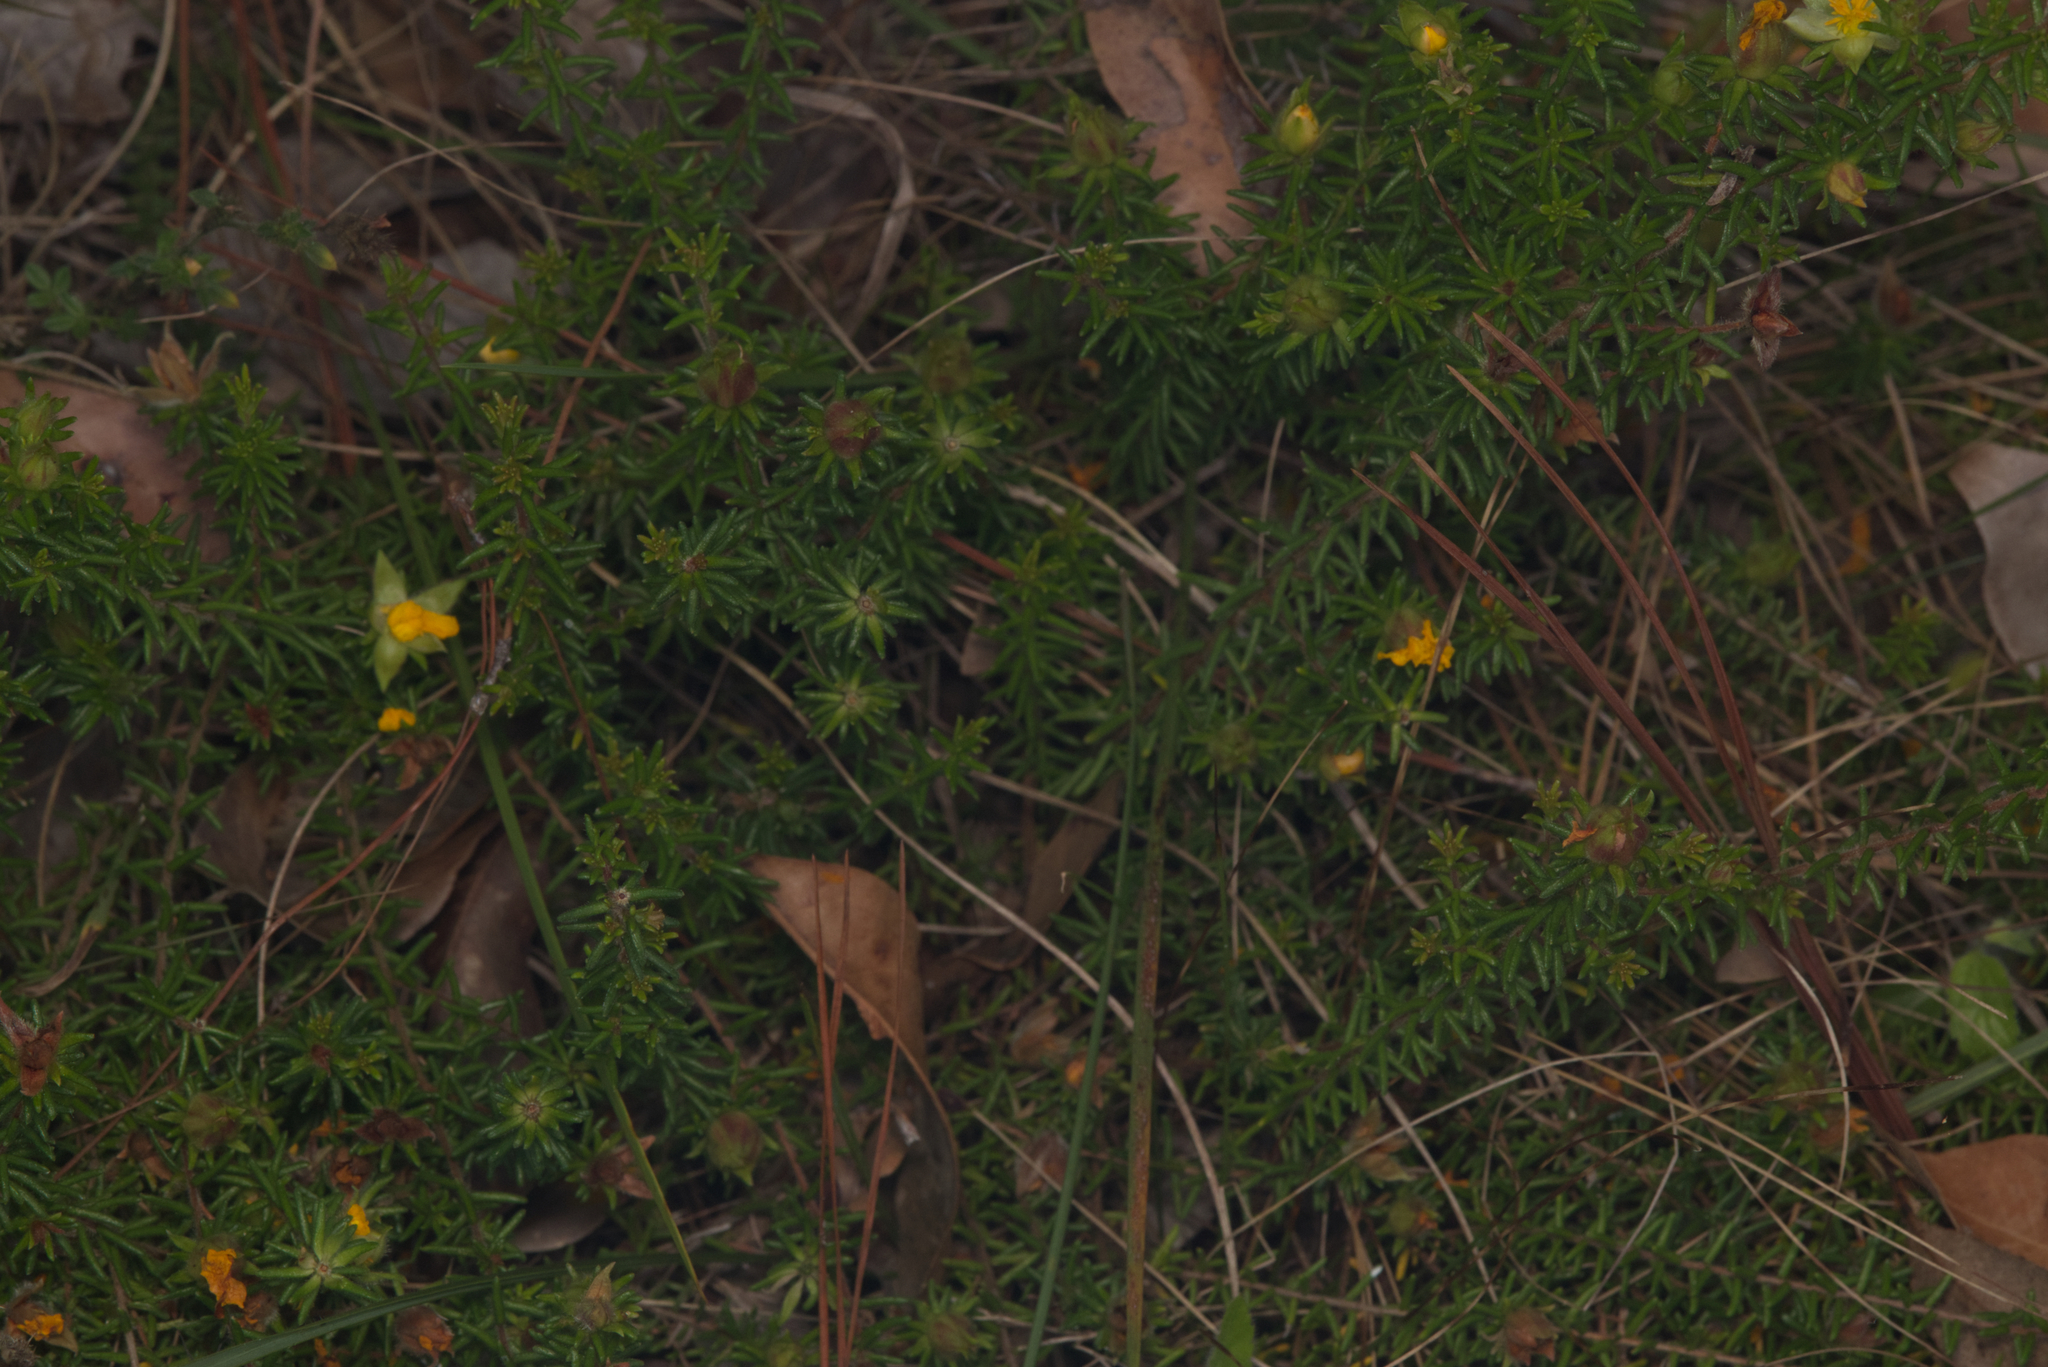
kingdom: Plantae
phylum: Tracheophyta
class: Magnoliopsida
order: Dilleniales
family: Dilleniaceae
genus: Hibbertia
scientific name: Hibbertia vestita
